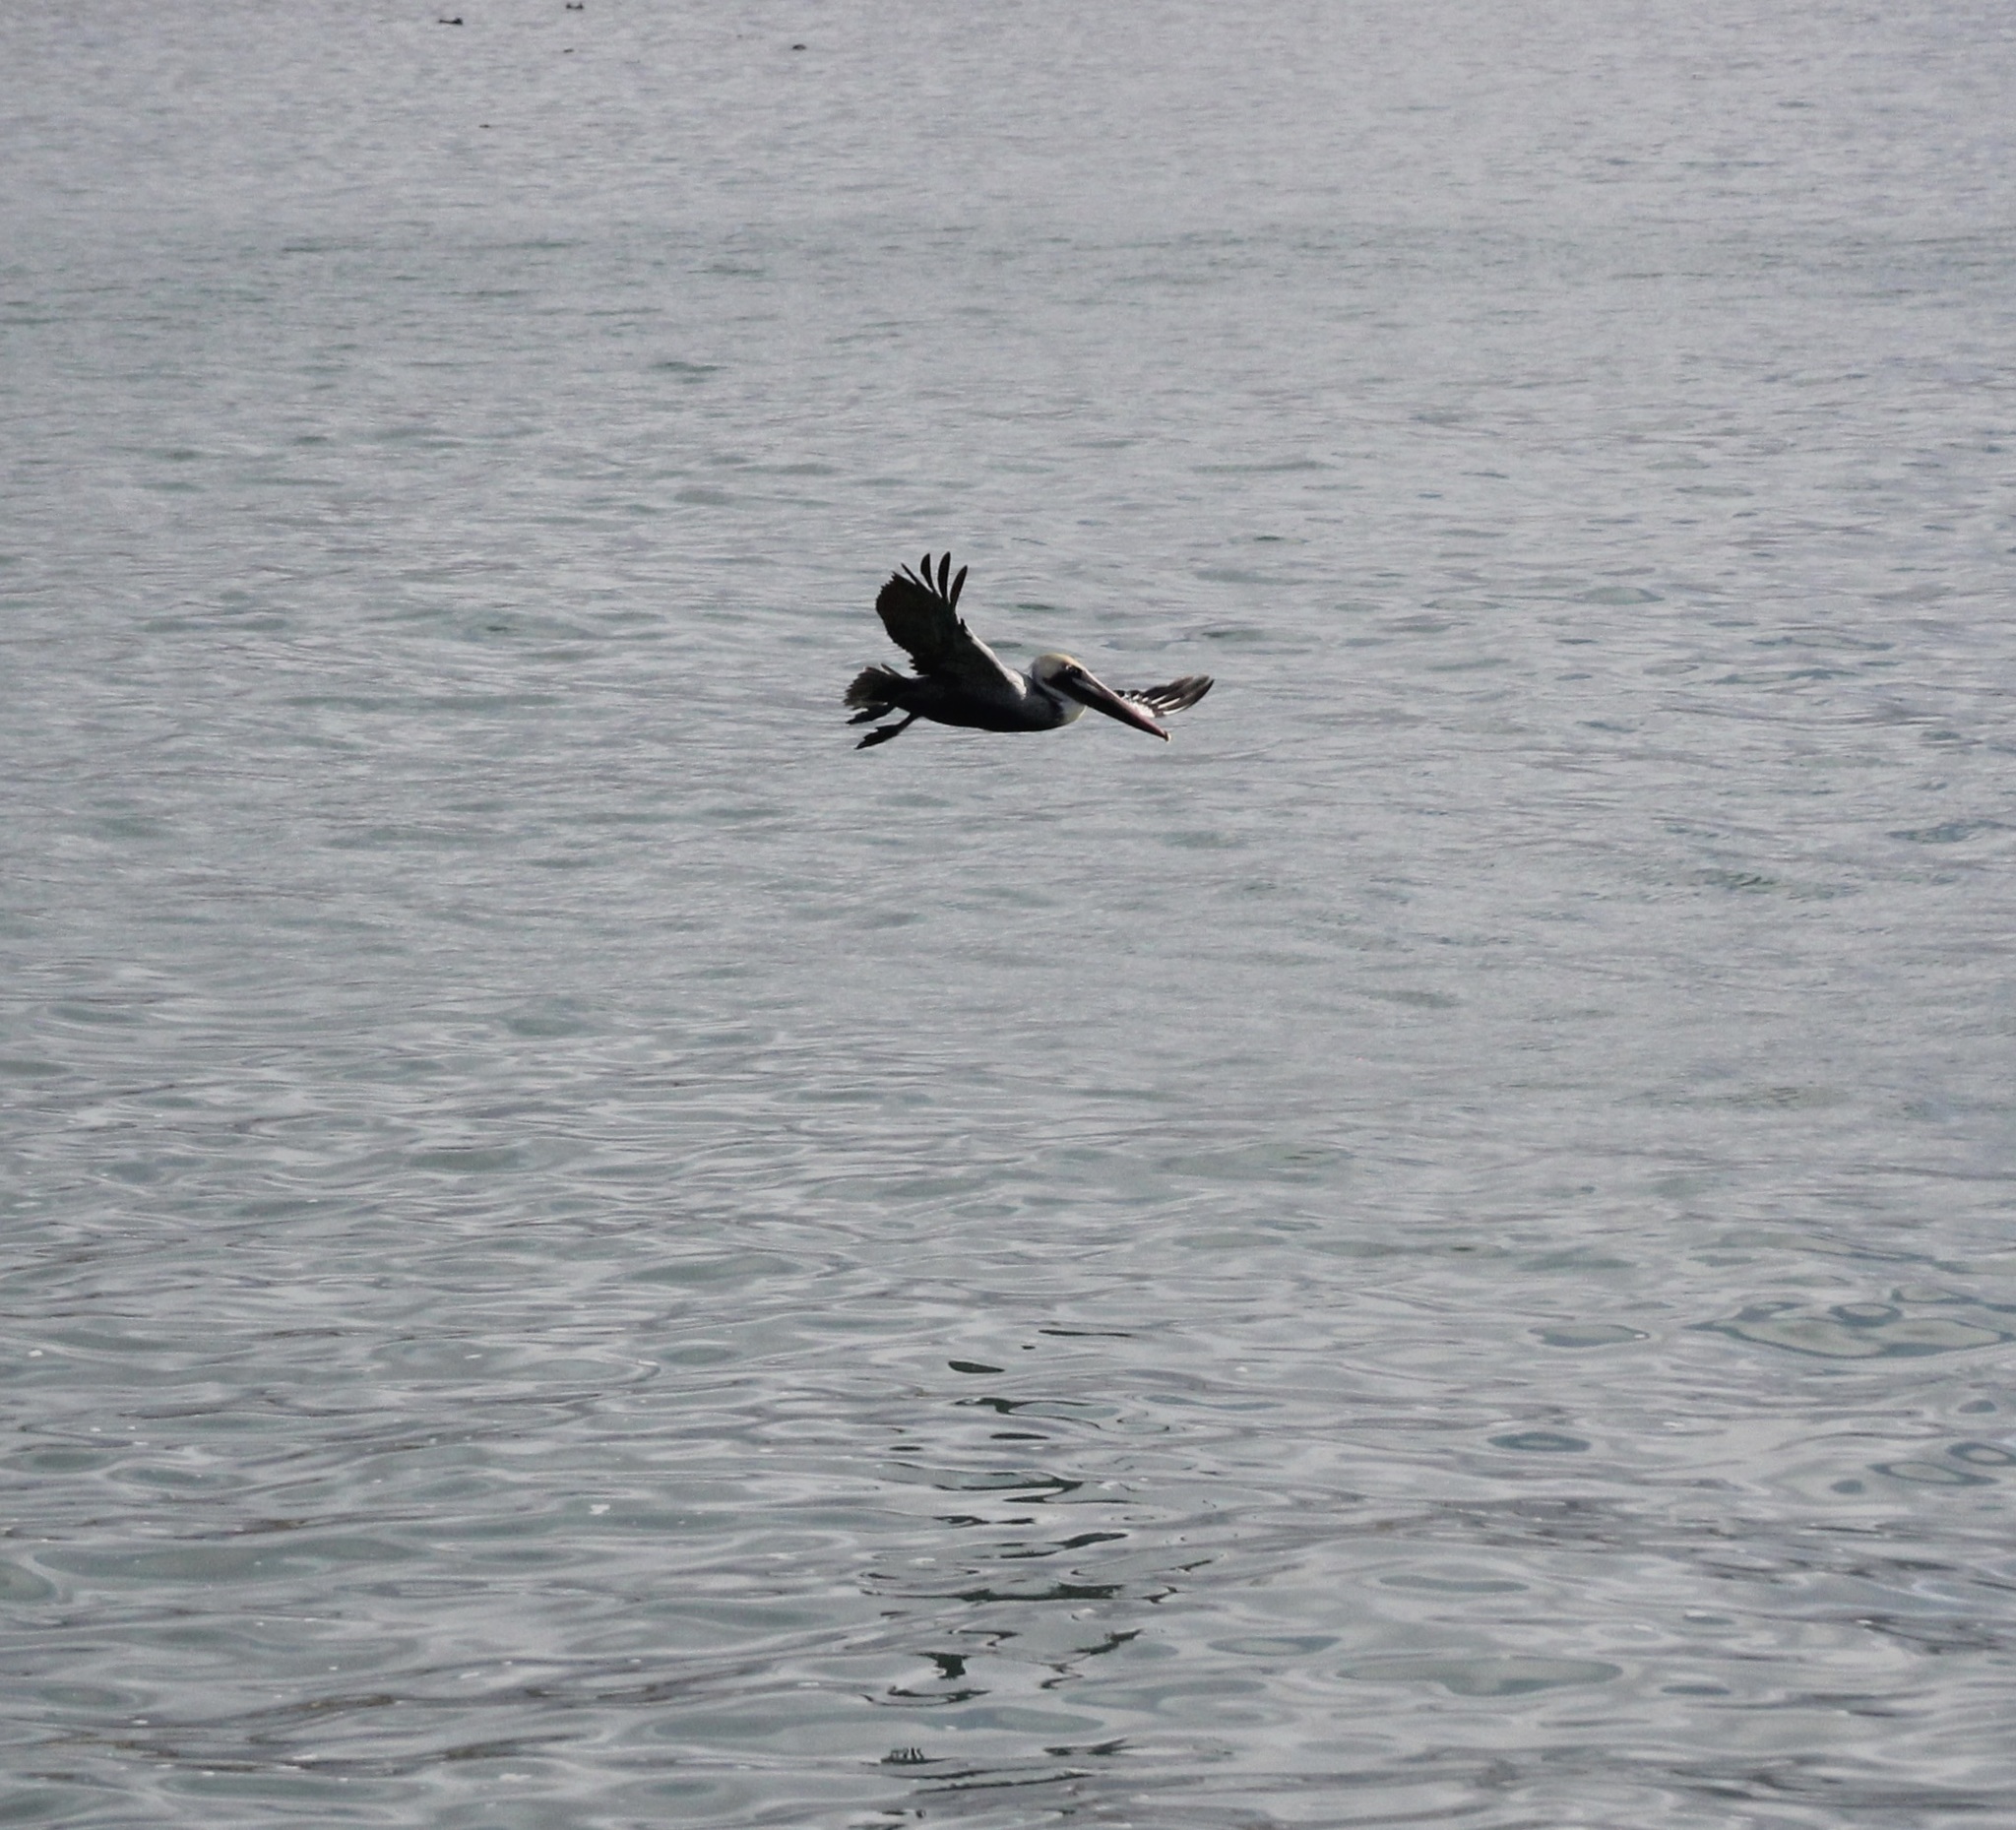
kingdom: Animalia
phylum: Chordata
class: Aves
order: Pelecaniformes
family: Pelecanidae
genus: Pelecanus
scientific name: Pelecanus occidentalis
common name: Brown pelican
